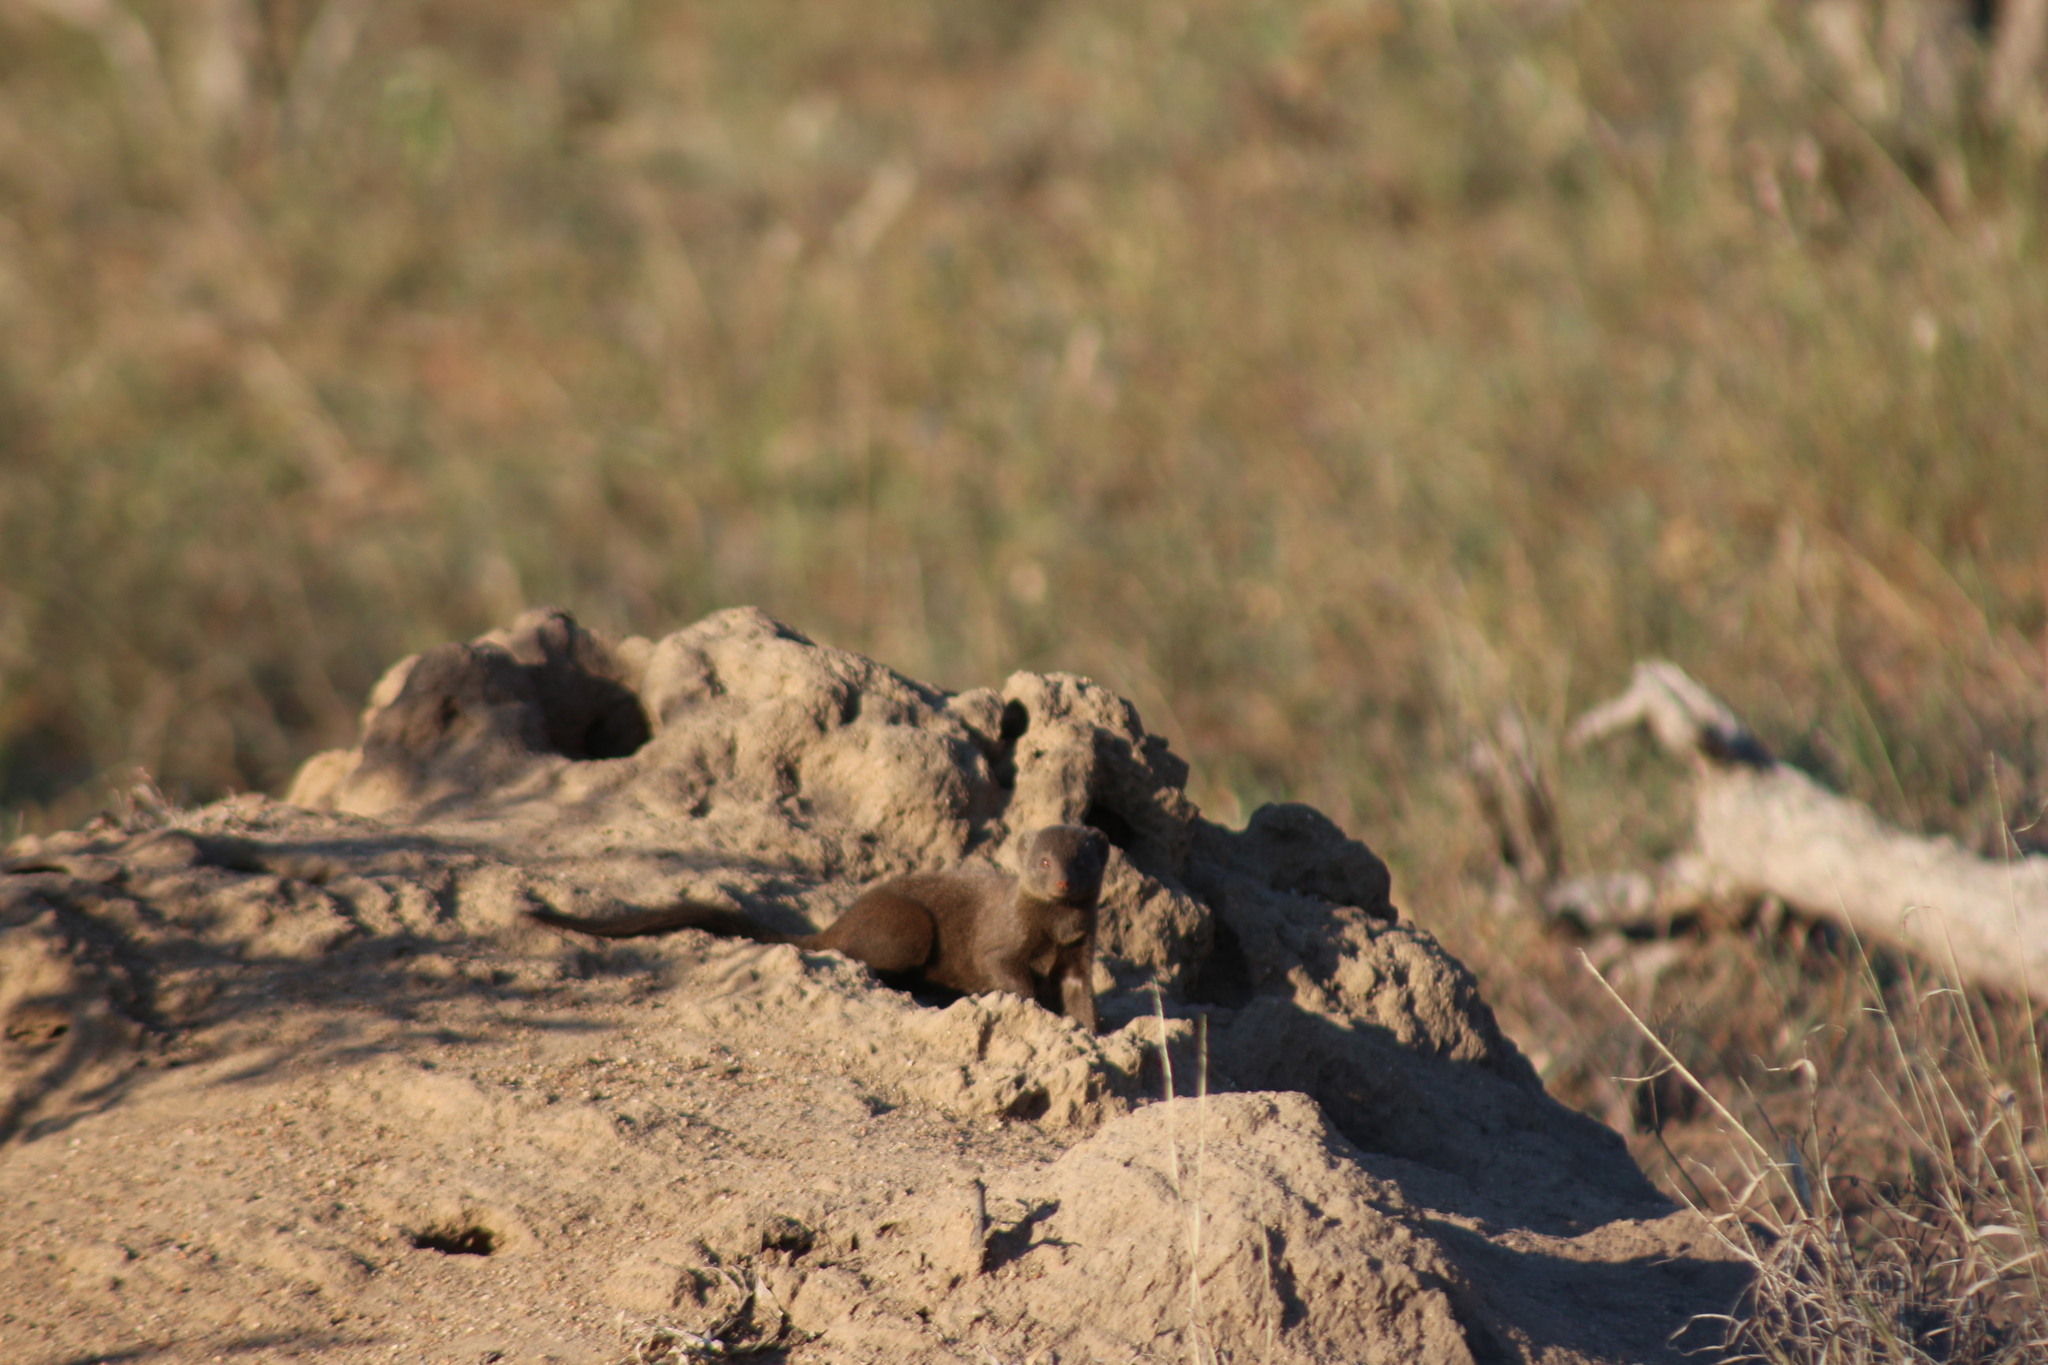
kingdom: Animalia
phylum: Chordata
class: Mammalia
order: Carnivora
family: Herpestidae
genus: Helogale
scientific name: Helogale parvula
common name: Common dwarf mongoose
